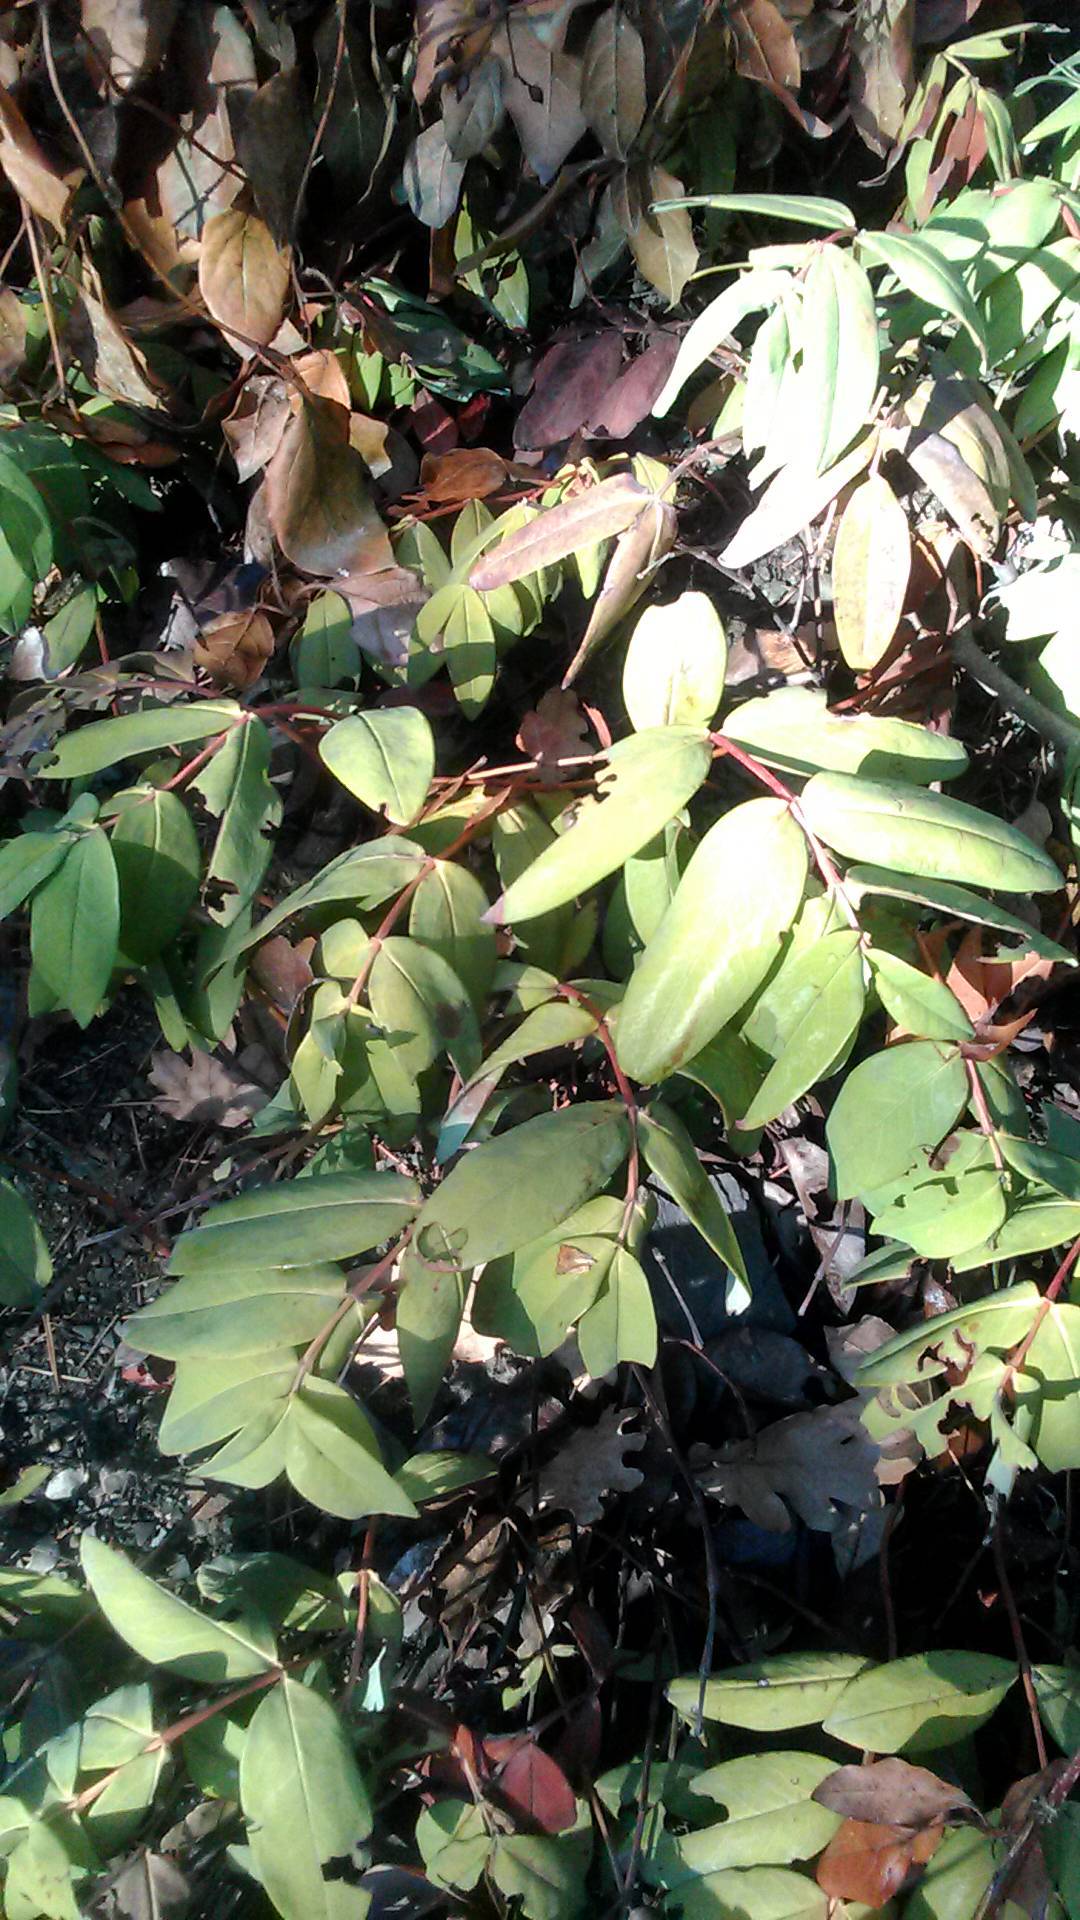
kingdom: Plantae
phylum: Tracheophyta
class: Magnoliopsida
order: Malpighiales
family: Hypericaceae
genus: Hypericum
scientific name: Hypericum calycinum
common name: Rose-of-sharon
